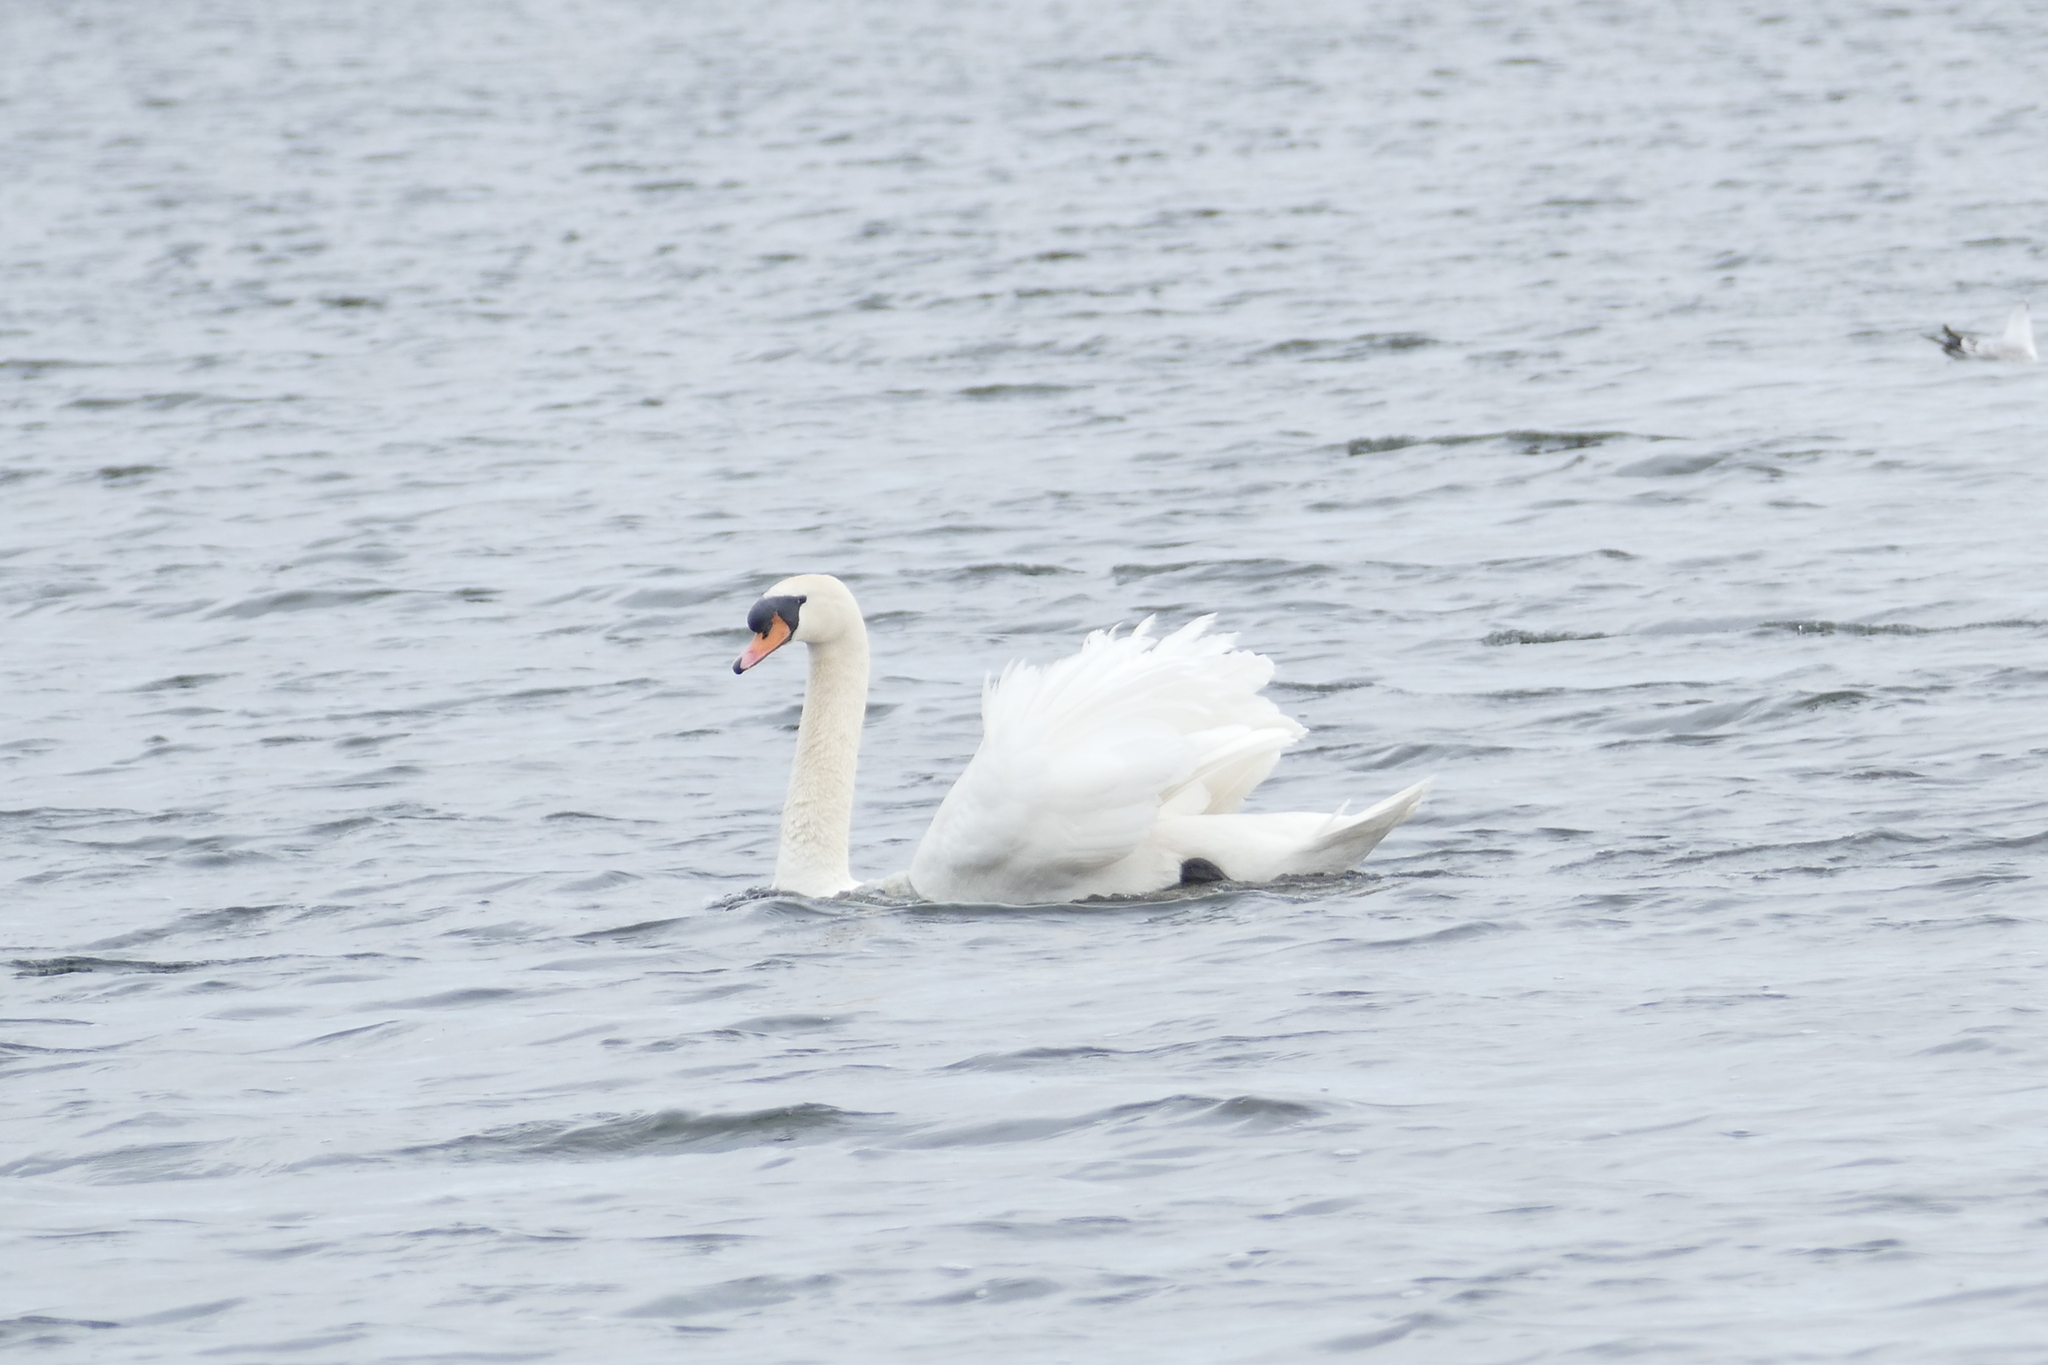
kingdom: Animalia
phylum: Chordata
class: Aves
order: Anseriformes
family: Anatidae
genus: Cygnus
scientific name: Cygnus olor
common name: Mute swan
